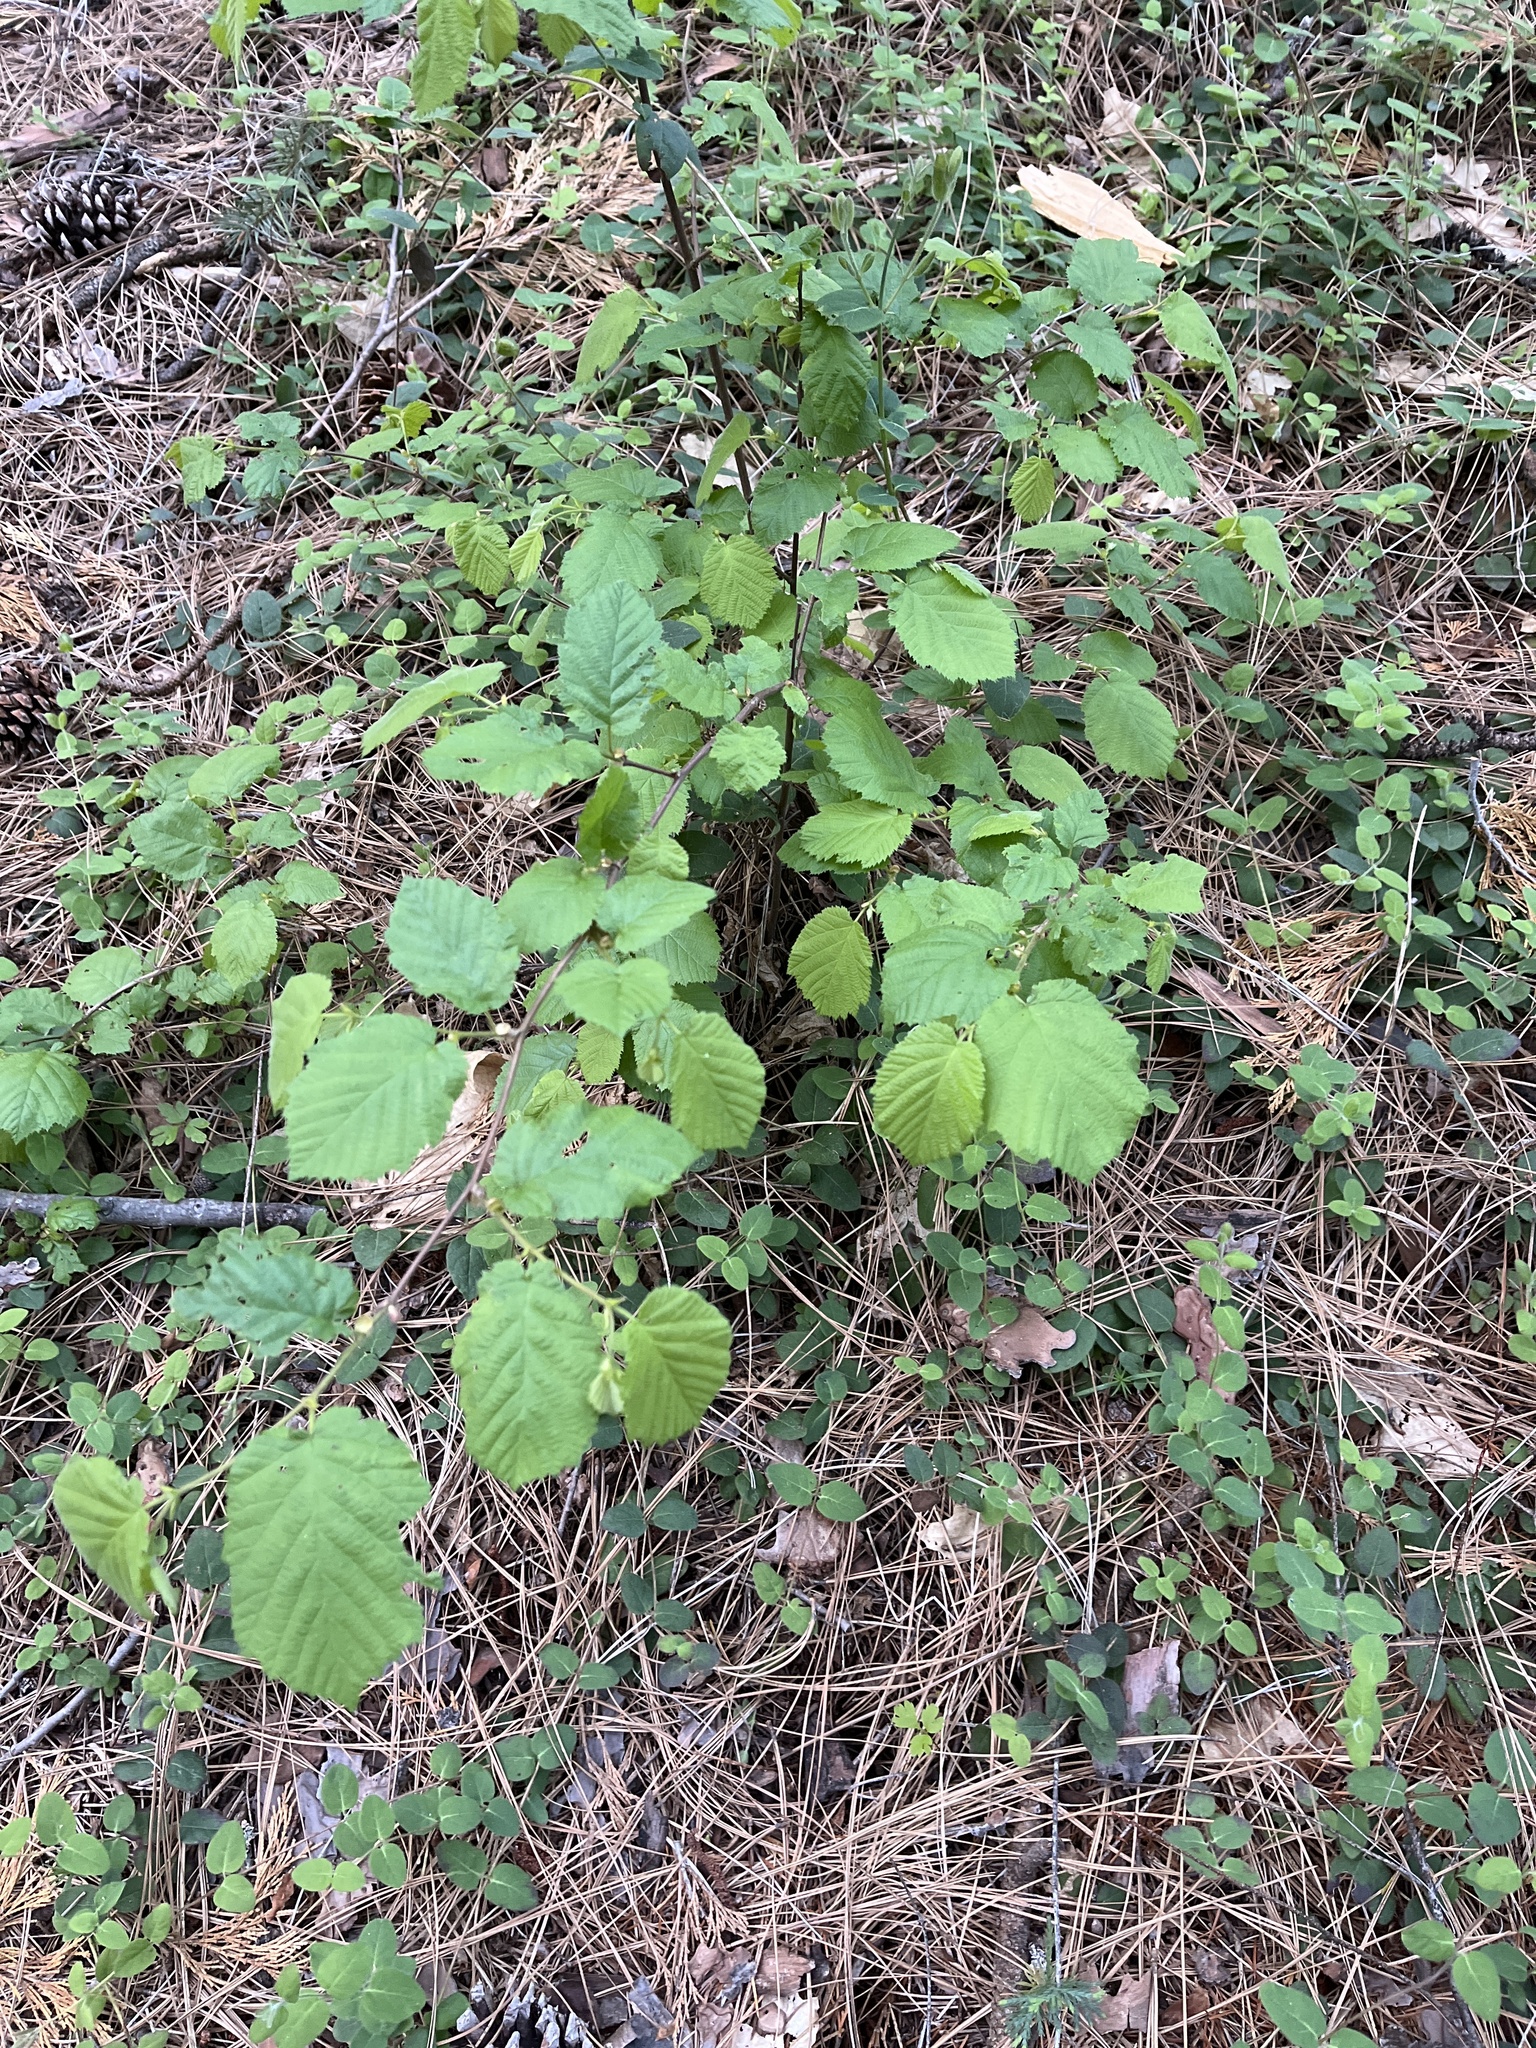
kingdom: Plantae
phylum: Tracheophyta
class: Magnoliopsida
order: Fagales
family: Betulaceae
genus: Corylus
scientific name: Corylus cornuta
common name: Beaked hazel
